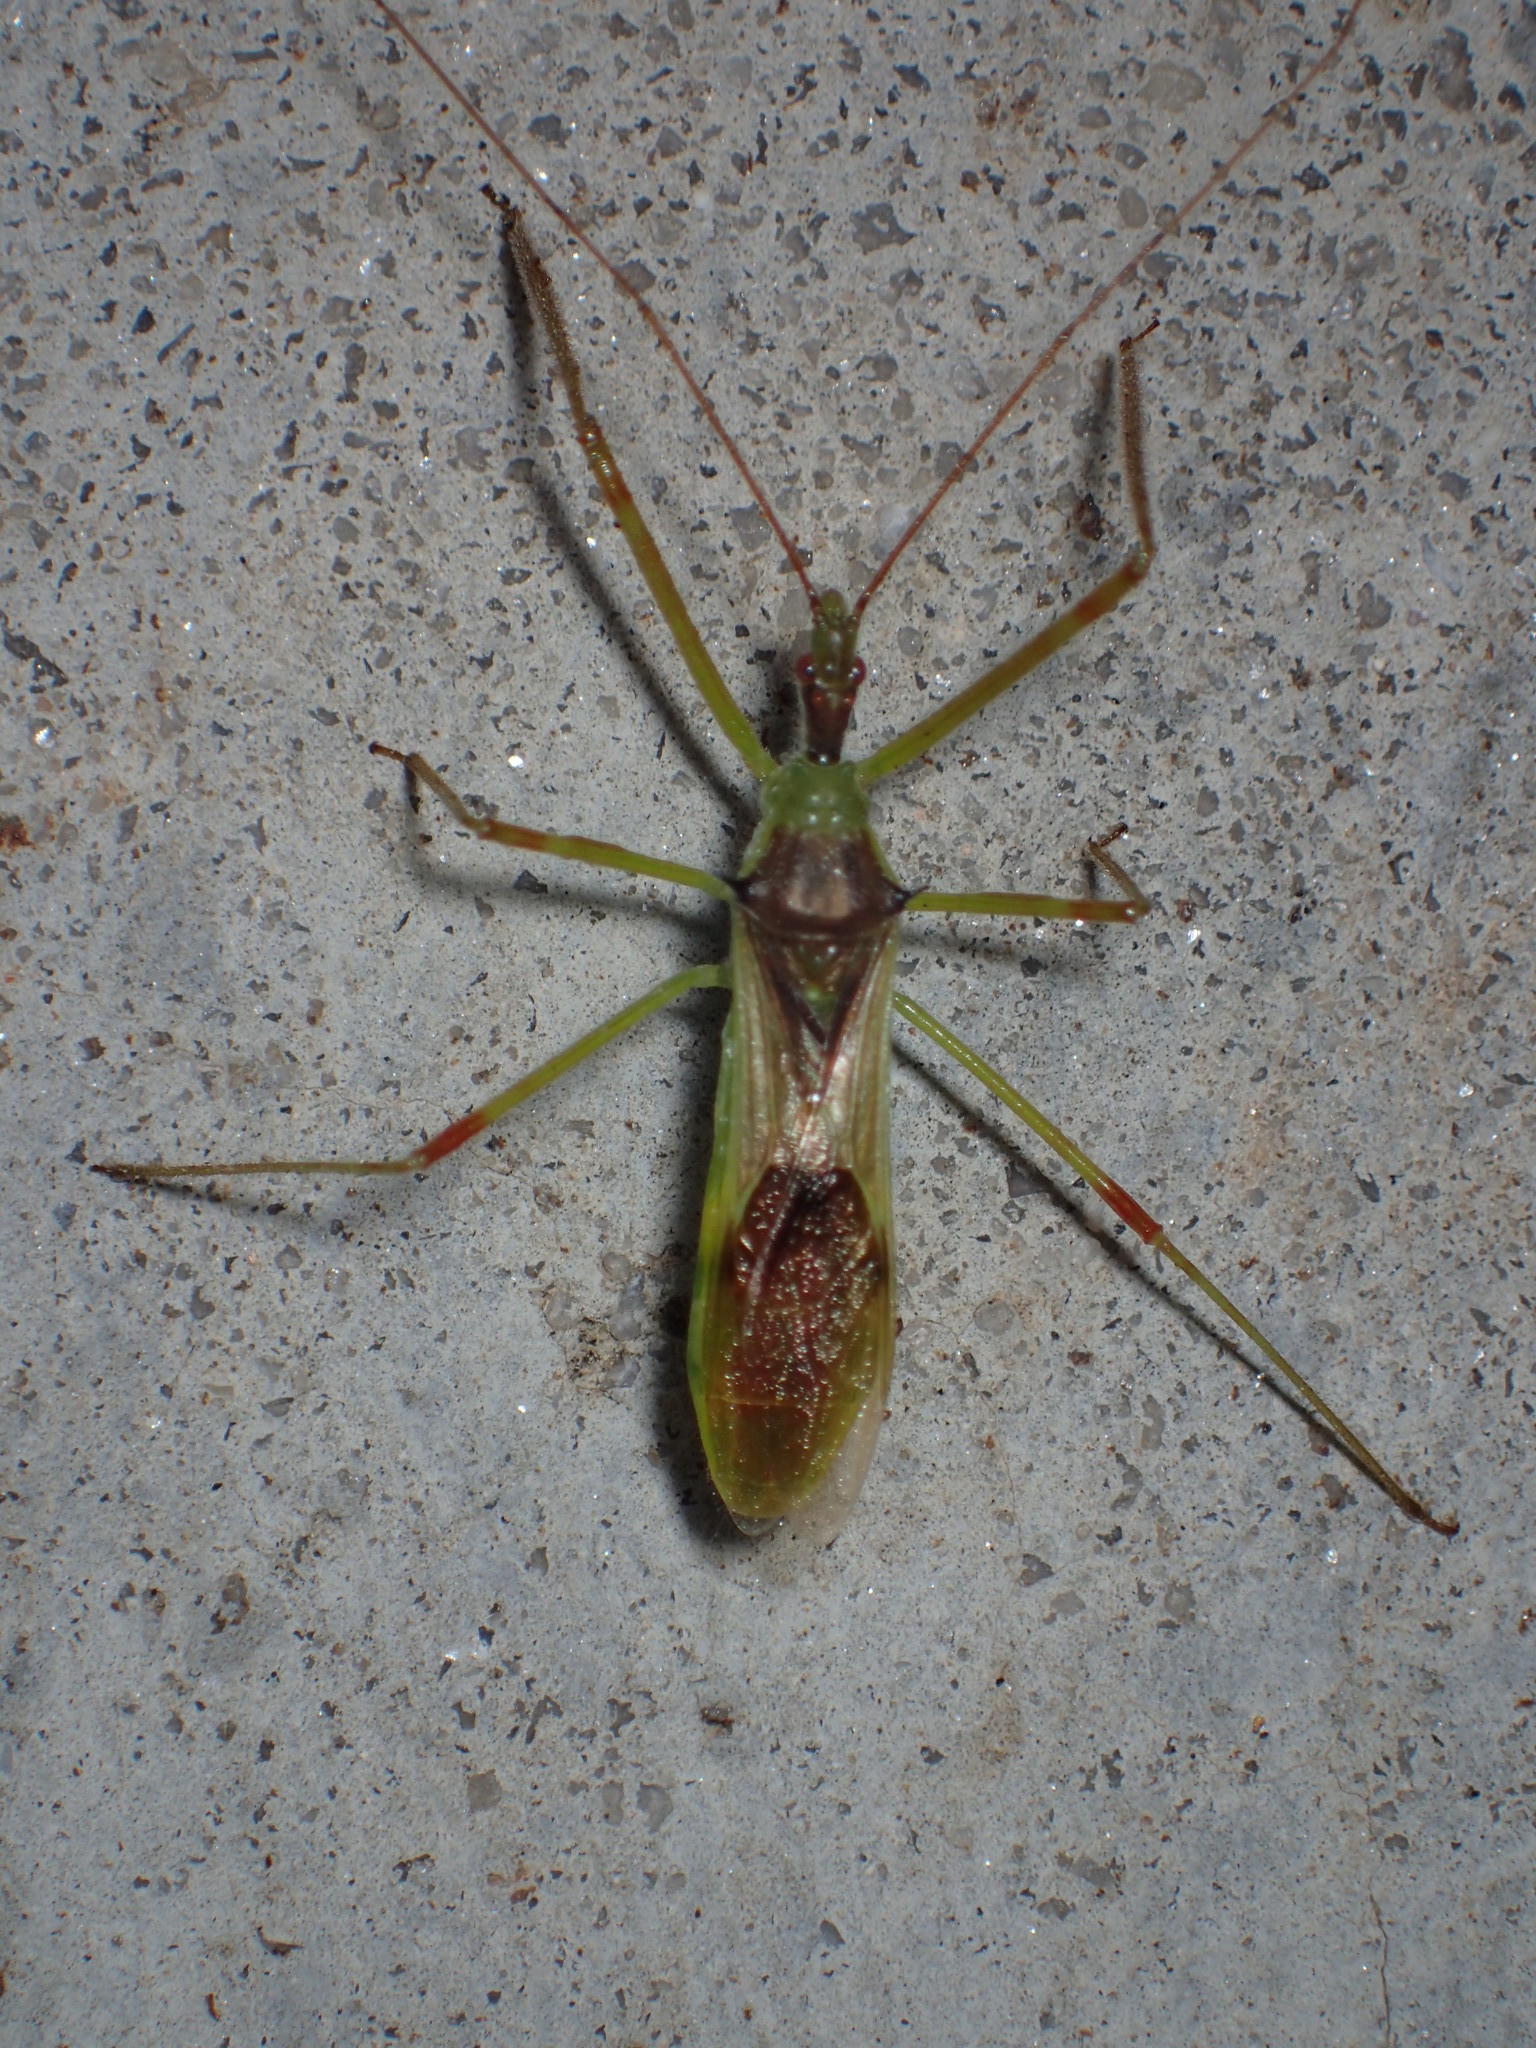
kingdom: Animalia
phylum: Arthropoda
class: Insecta
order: Hemiptera
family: Reduviidae
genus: Zelus
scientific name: Zelus luridus
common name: Pale green assassin bug
